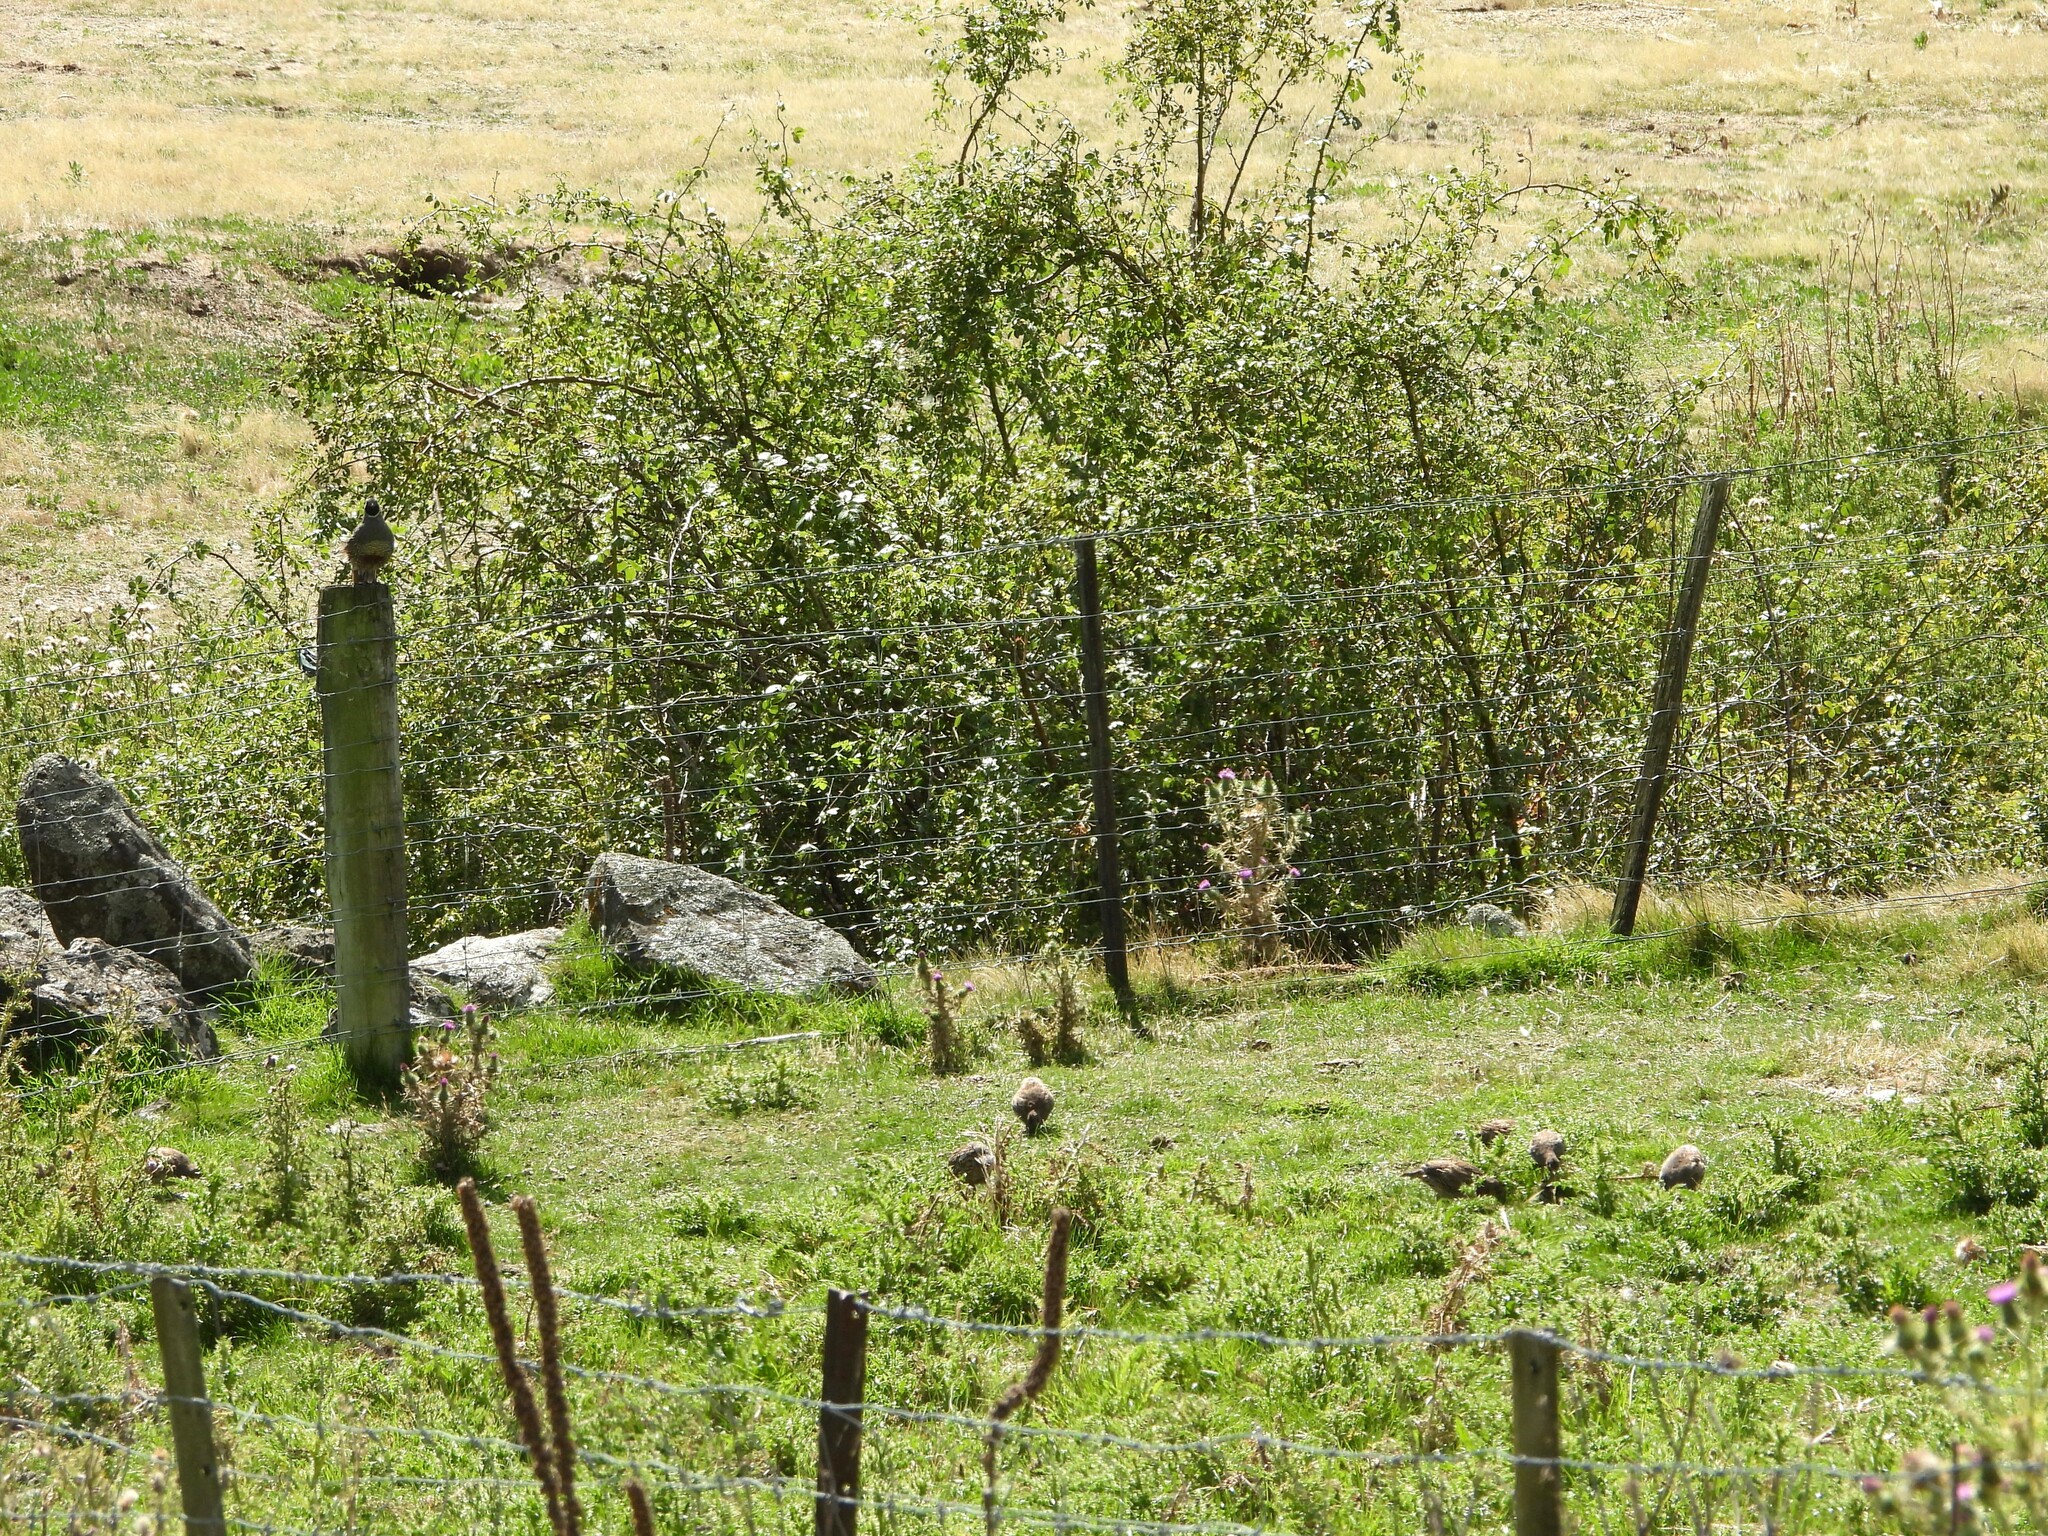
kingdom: Animalia
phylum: Chordata
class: Aves
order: Galliformes
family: Odontophoridae
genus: Callipepla
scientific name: Callipepla californica
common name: California quail
